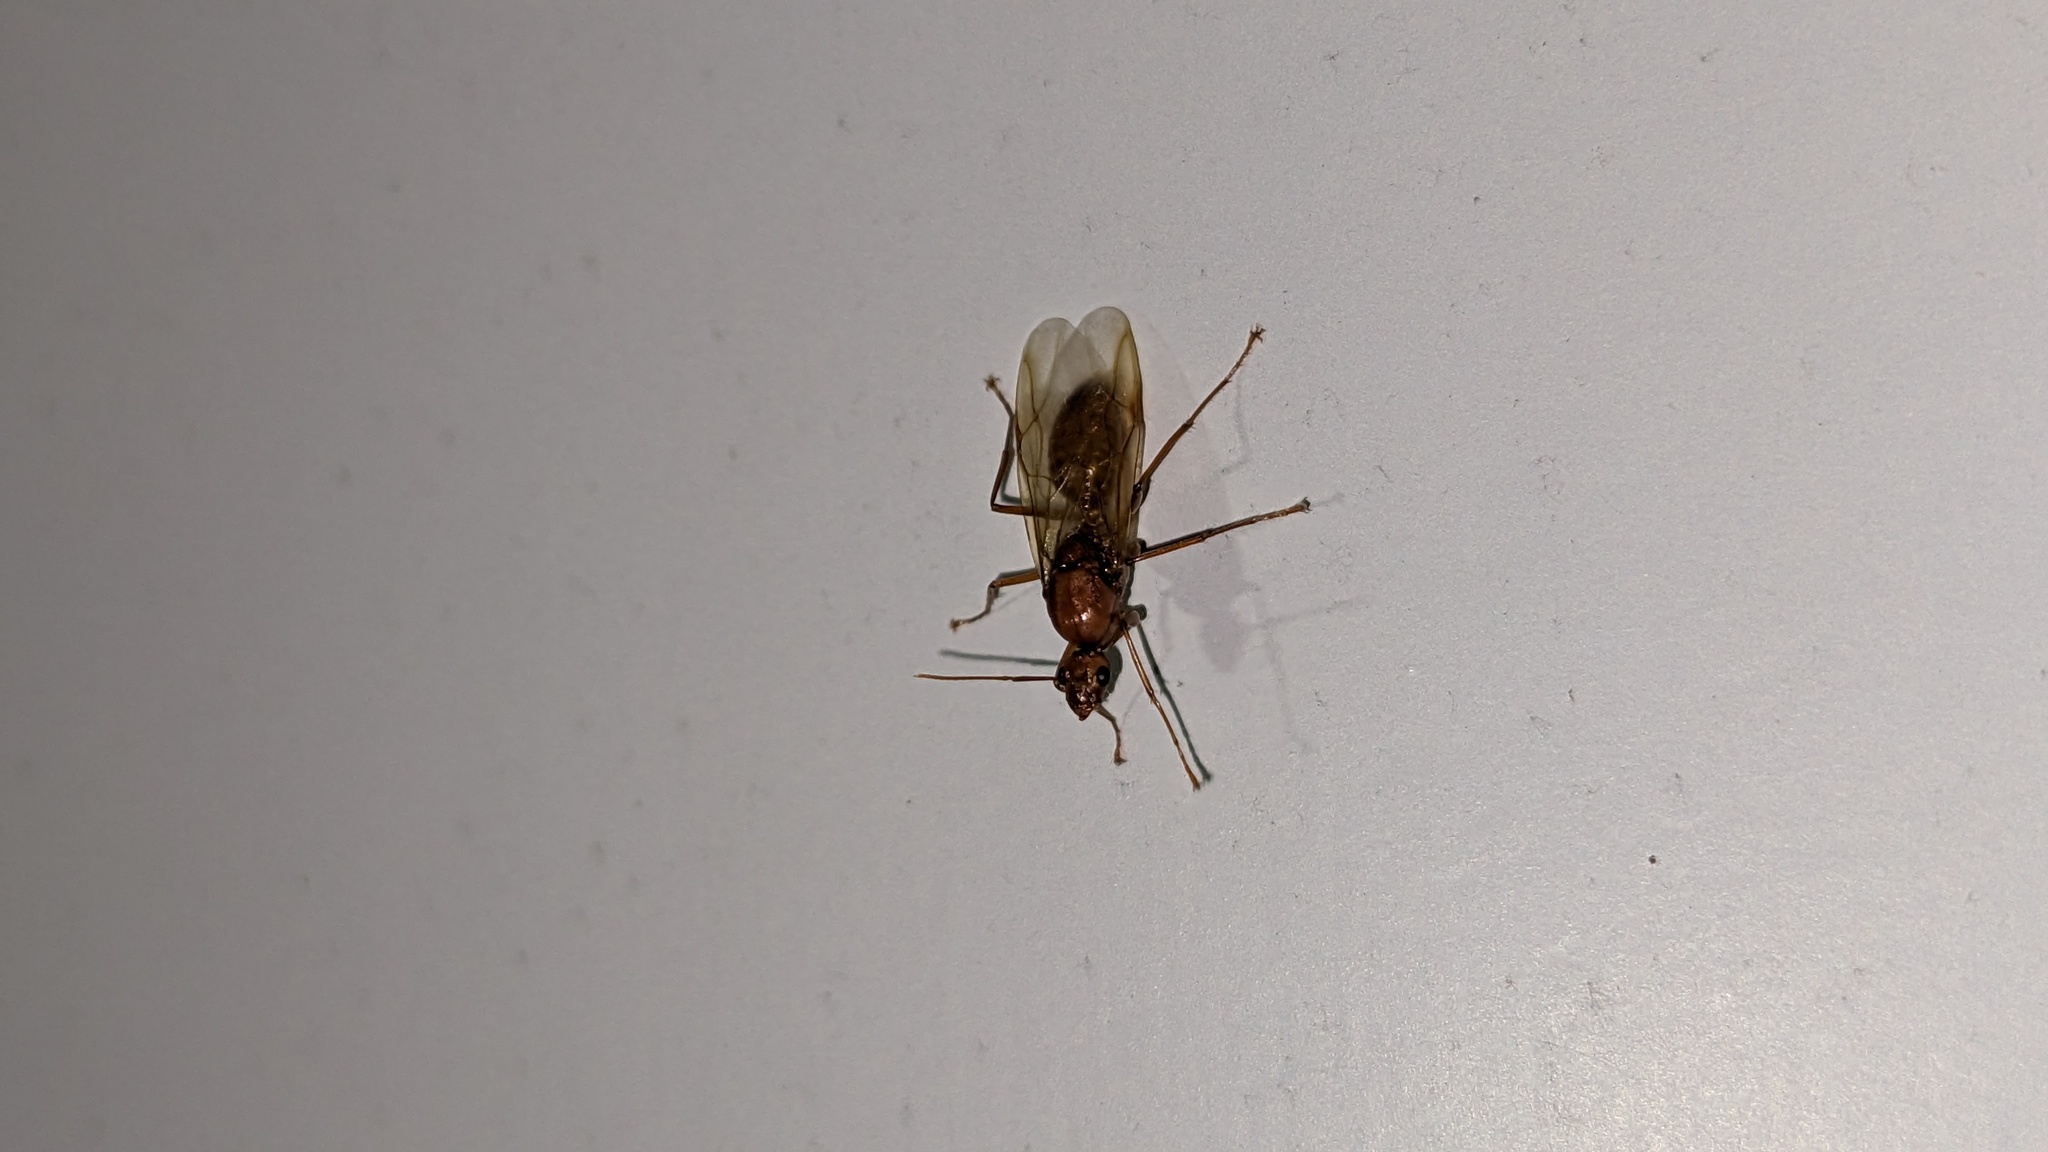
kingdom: Animalia
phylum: Arthropoda
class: Insecta
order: Hymenoptera
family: Formicidae
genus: Camponotus
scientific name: Camponotus castaneus
